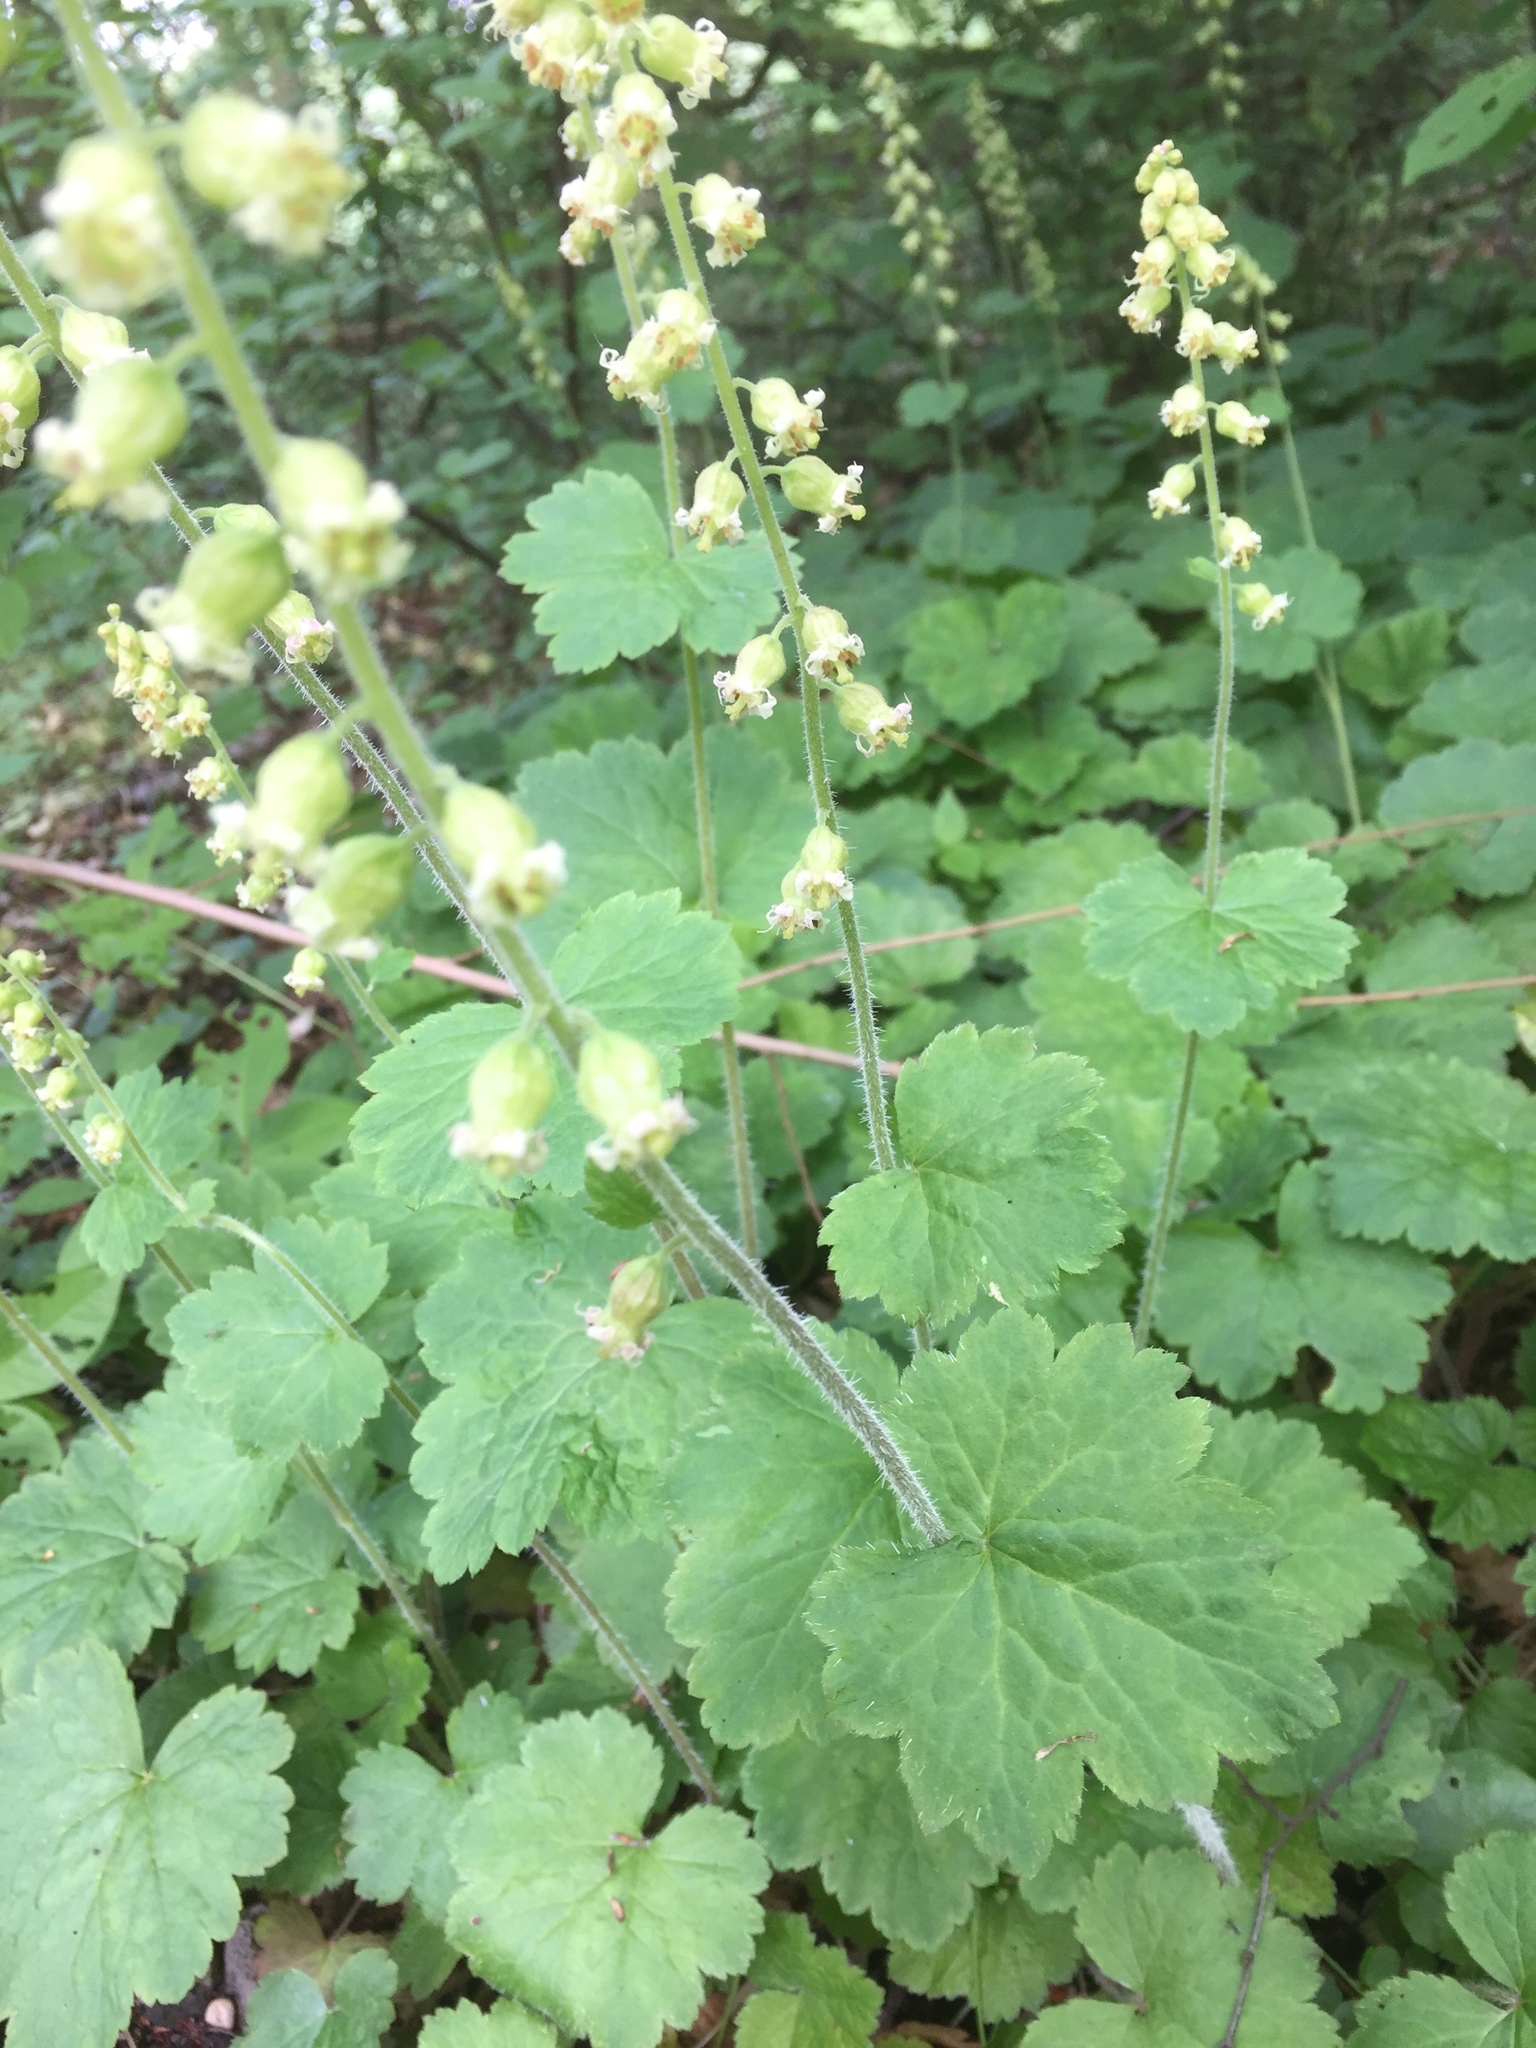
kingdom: Plantae
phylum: Tracheophyta
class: Magnoliopsida
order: Saxifragales
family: Saxifragaceae
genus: Tellima
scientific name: Tellima grandiflora
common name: Fringecups
